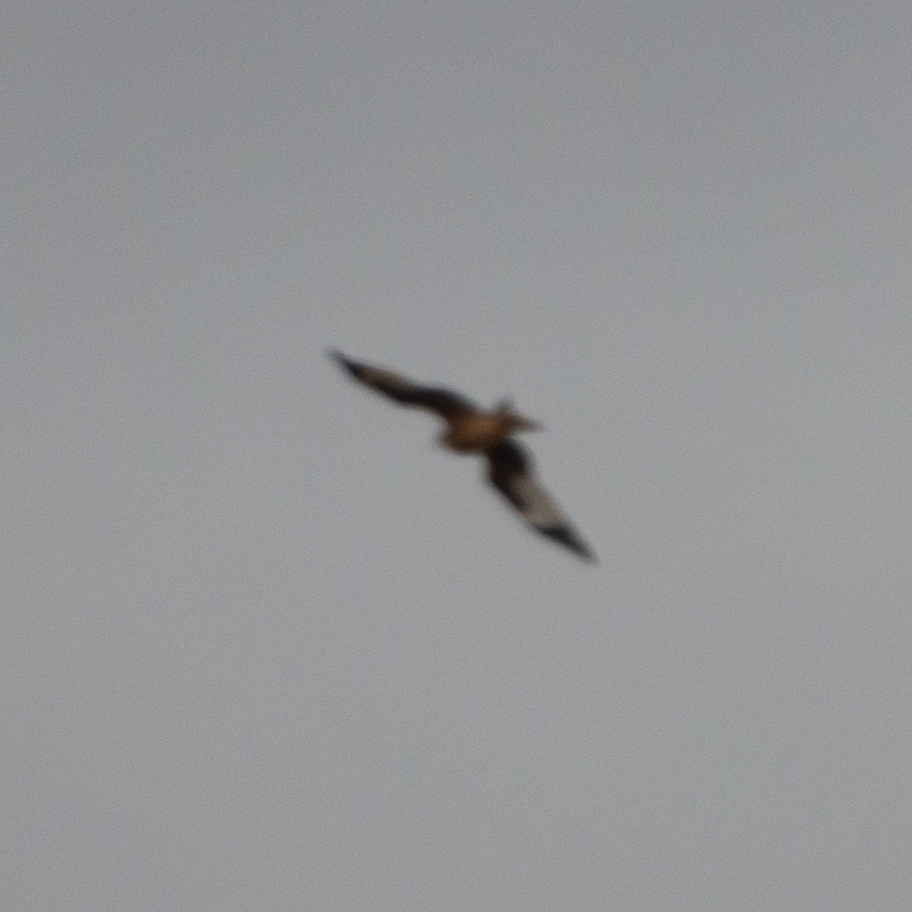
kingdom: Animalia
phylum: Chordata
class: Aves
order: Accipitriformes
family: Accipitridae
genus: Milvus
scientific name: Milvus milvus
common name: Red kite
